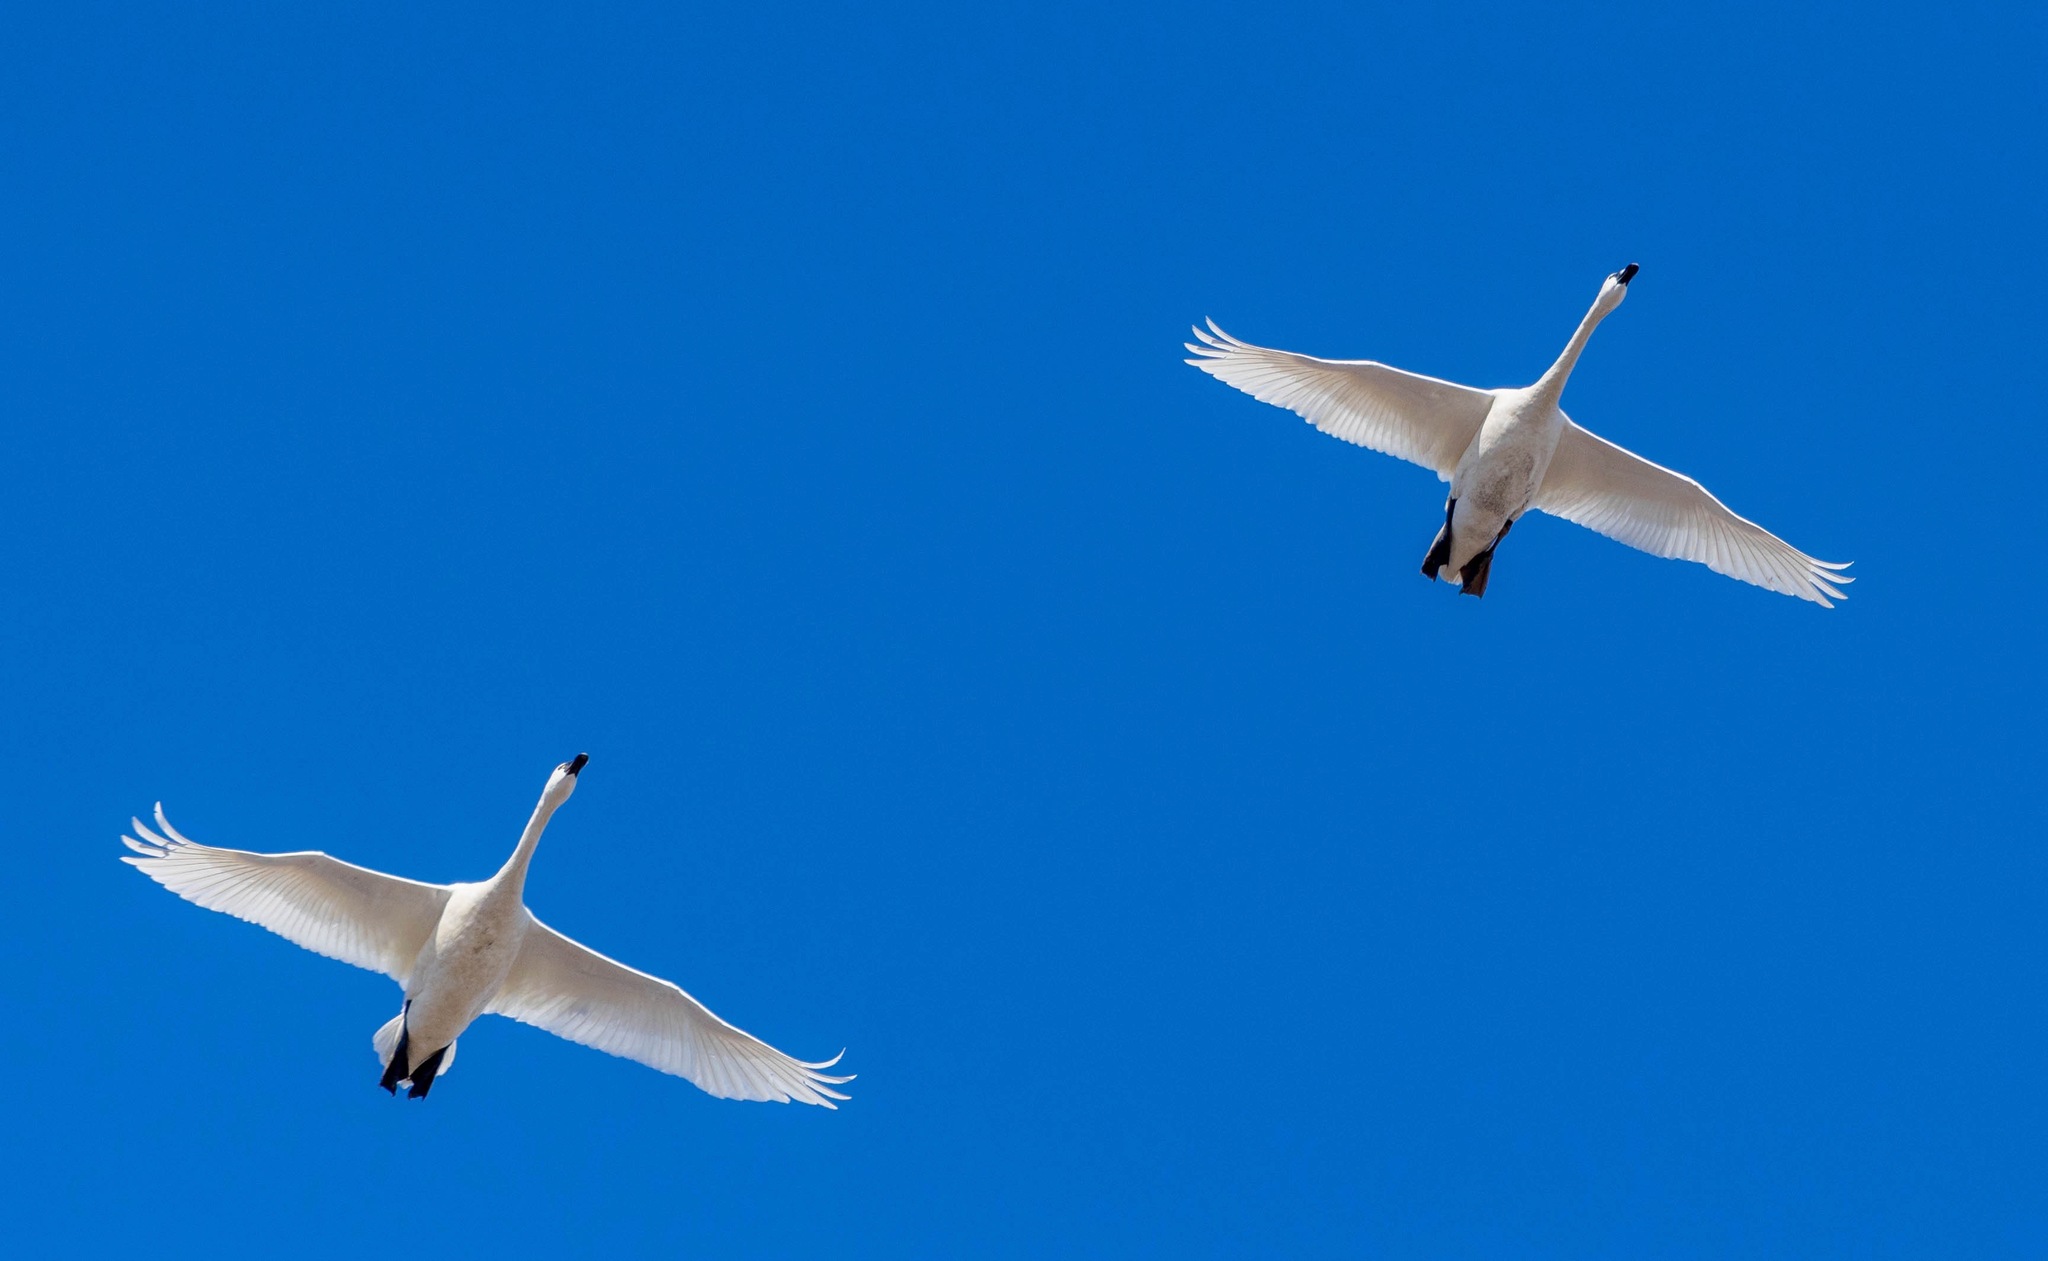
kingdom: Animalia
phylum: Chordata
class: Aves
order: Anseriformes
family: Anatidae
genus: Cygnus
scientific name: Cygnus columbianus
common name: Tundra swan
